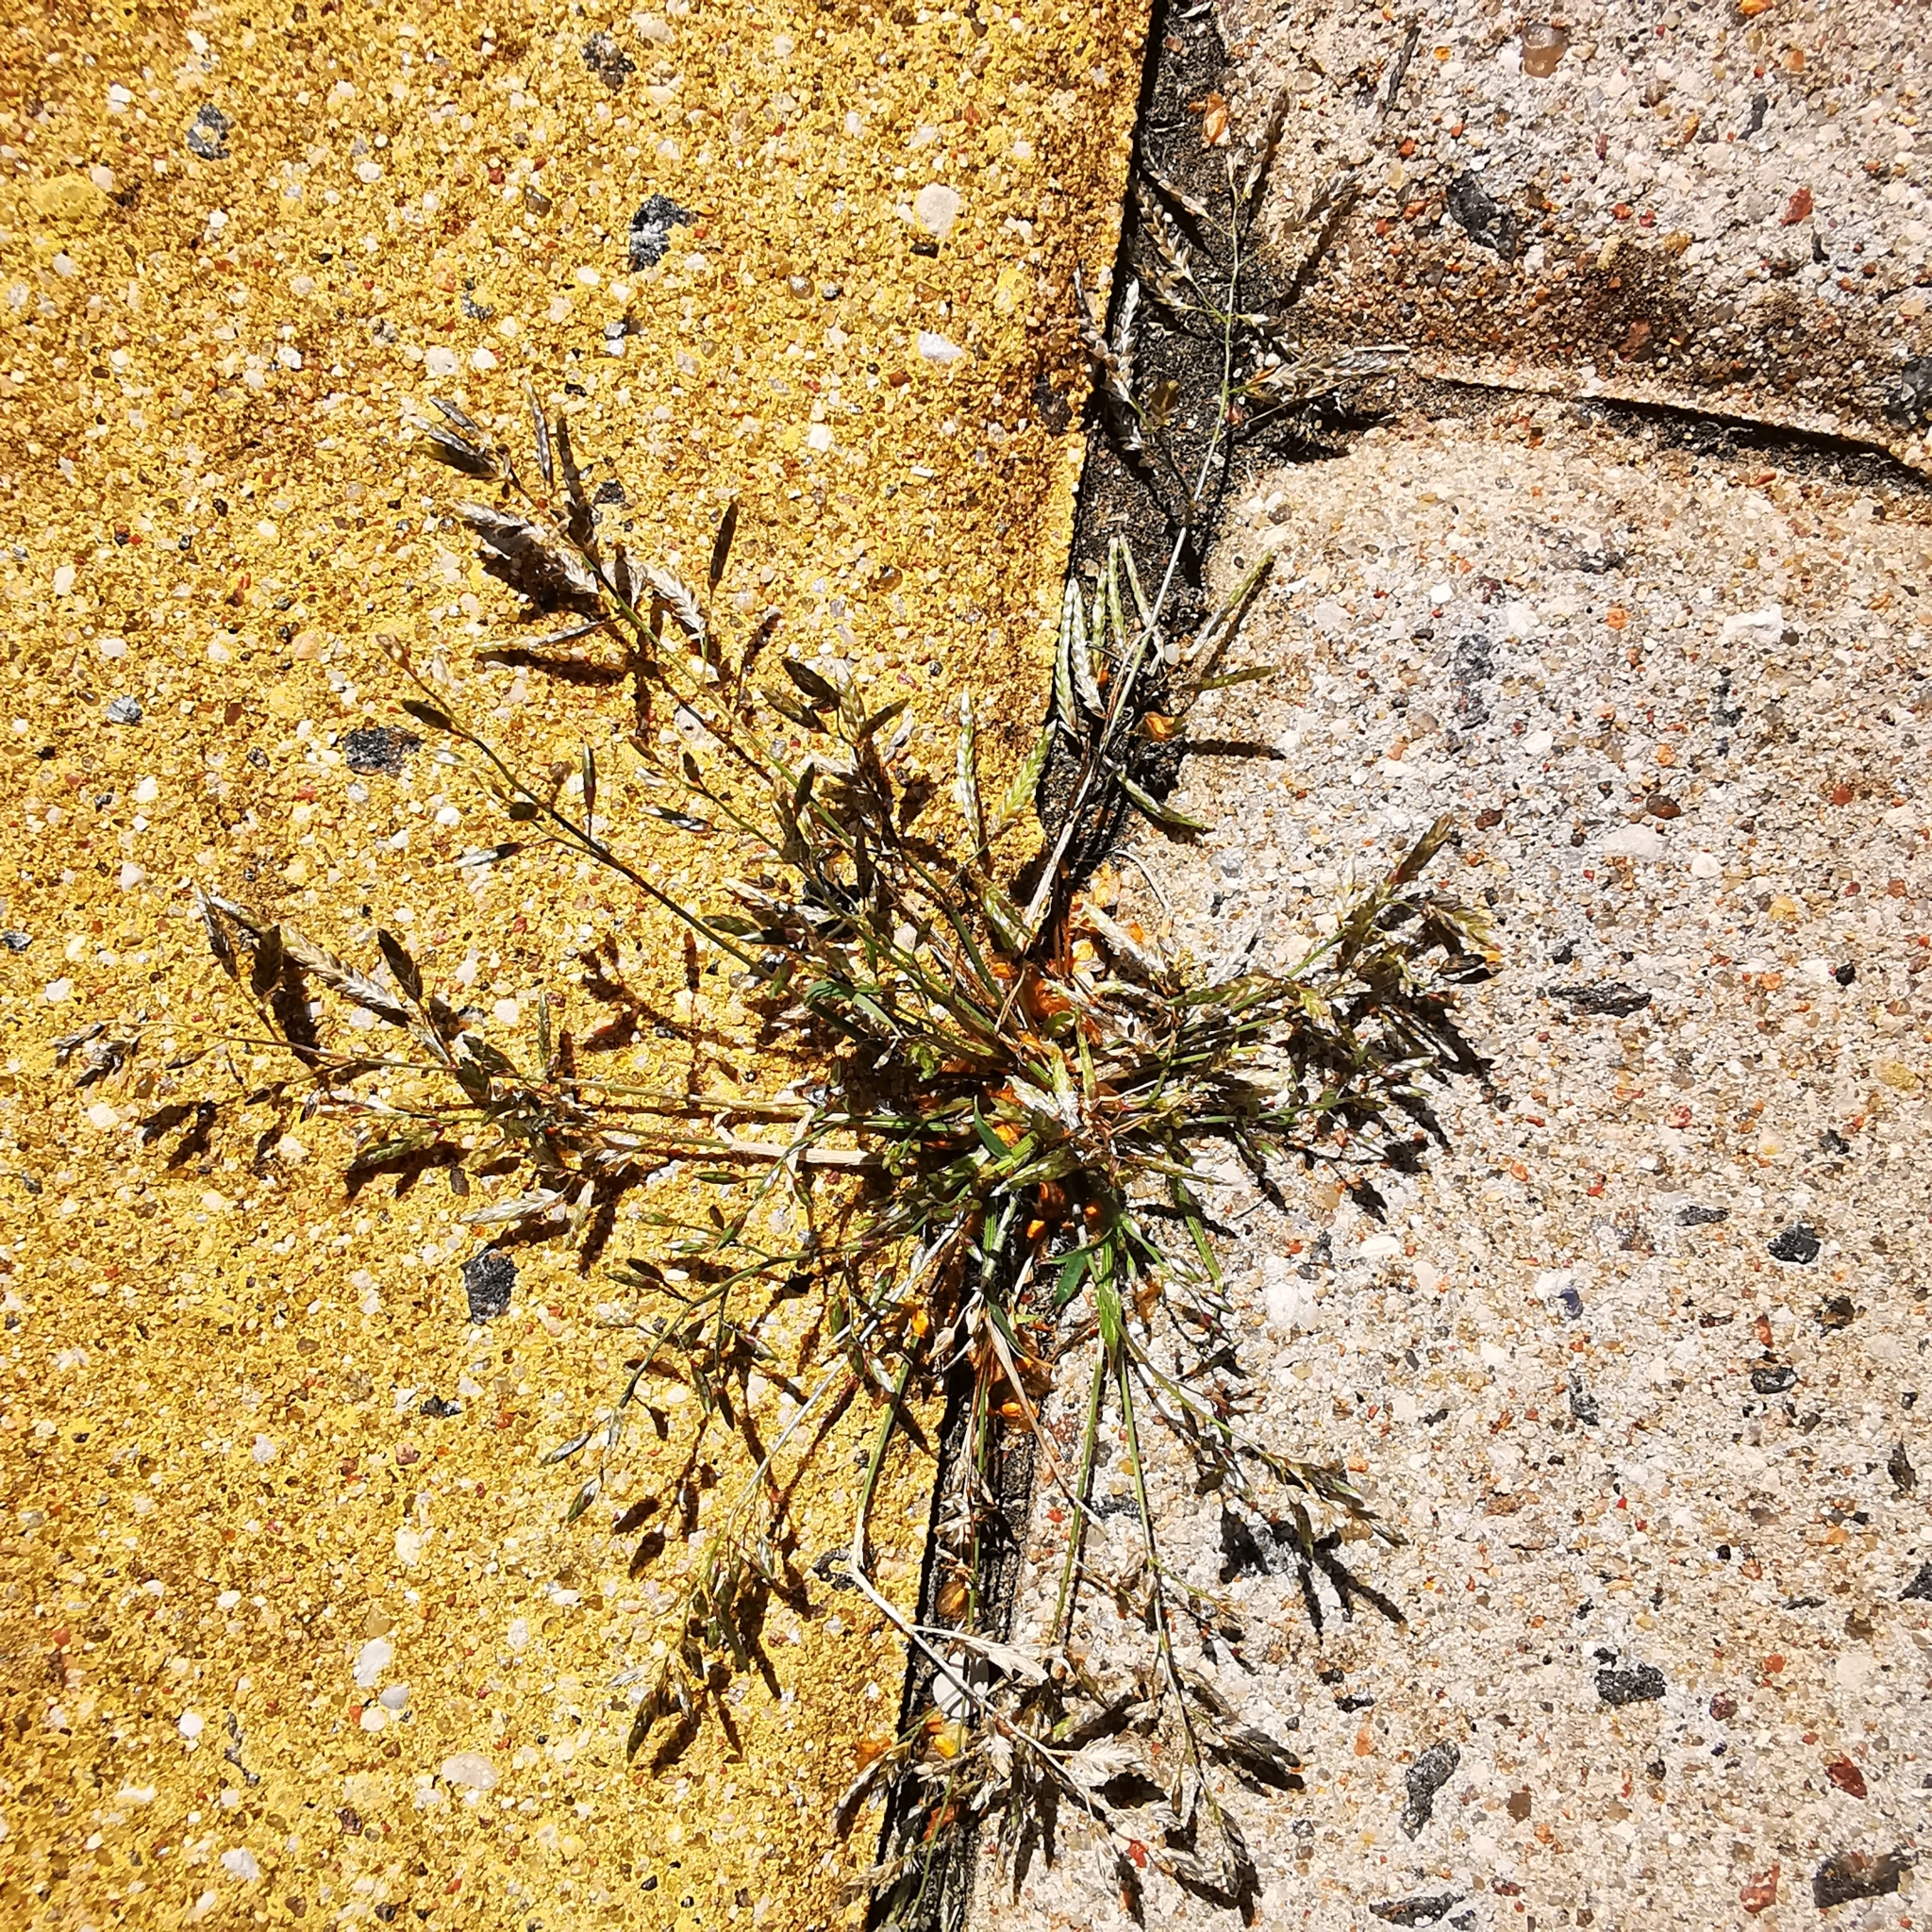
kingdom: Plantae
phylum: Tracheophyta
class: Liliopsida
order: Poales
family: Poaceae
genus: Eragrostis
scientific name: Eragrostis minor
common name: Small love-grass
